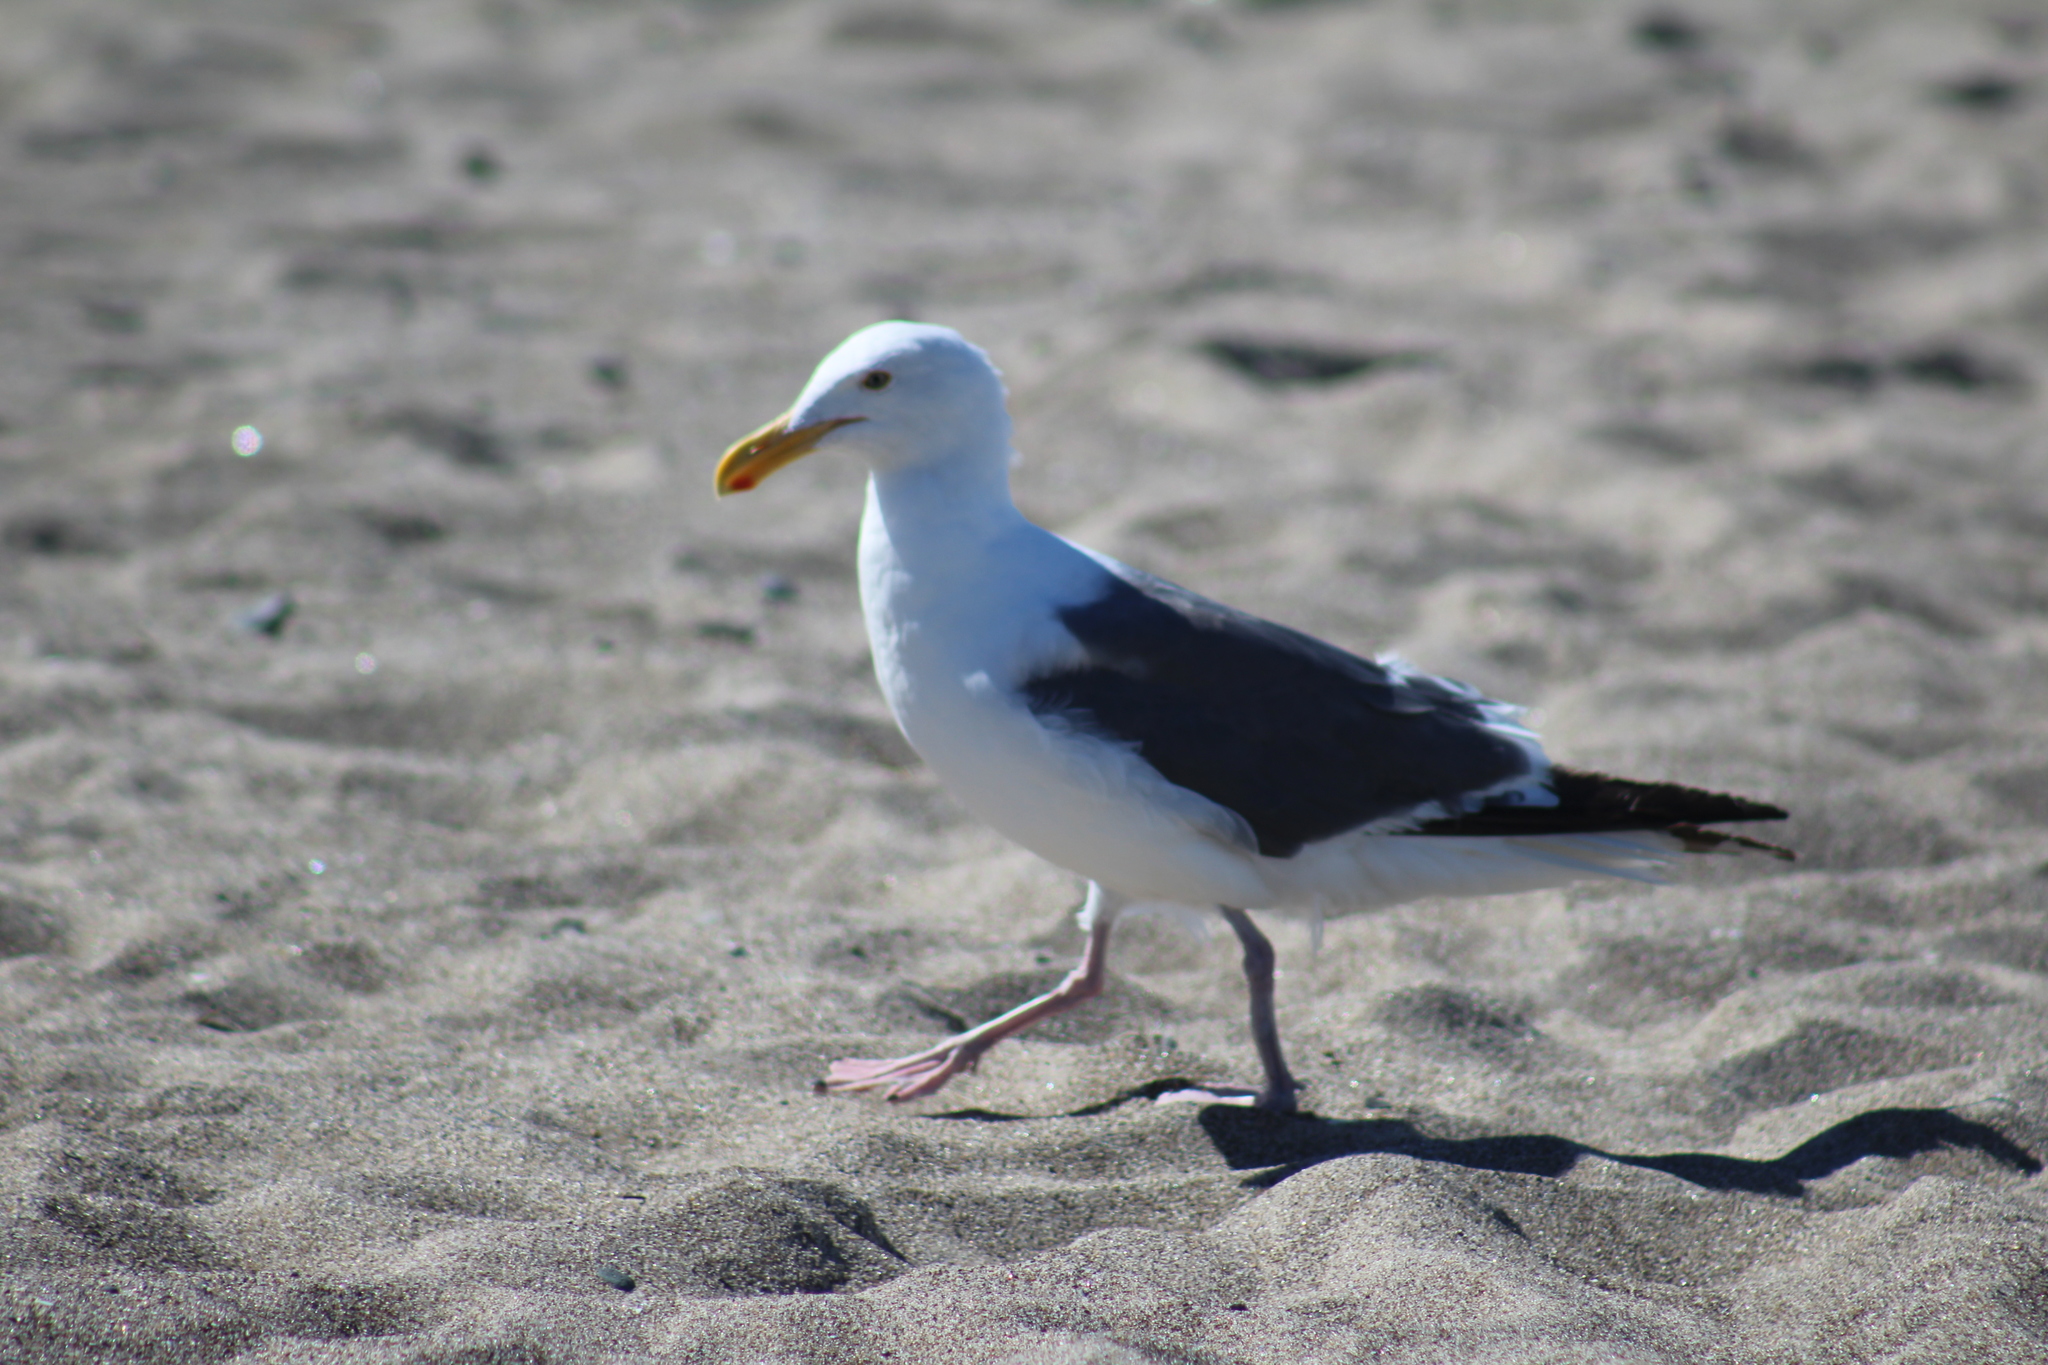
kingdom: Animalia
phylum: Chordata
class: Aves
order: Charadriiformes
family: Laridae
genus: Larus
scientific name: Larus occidentalis
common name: Western gull
